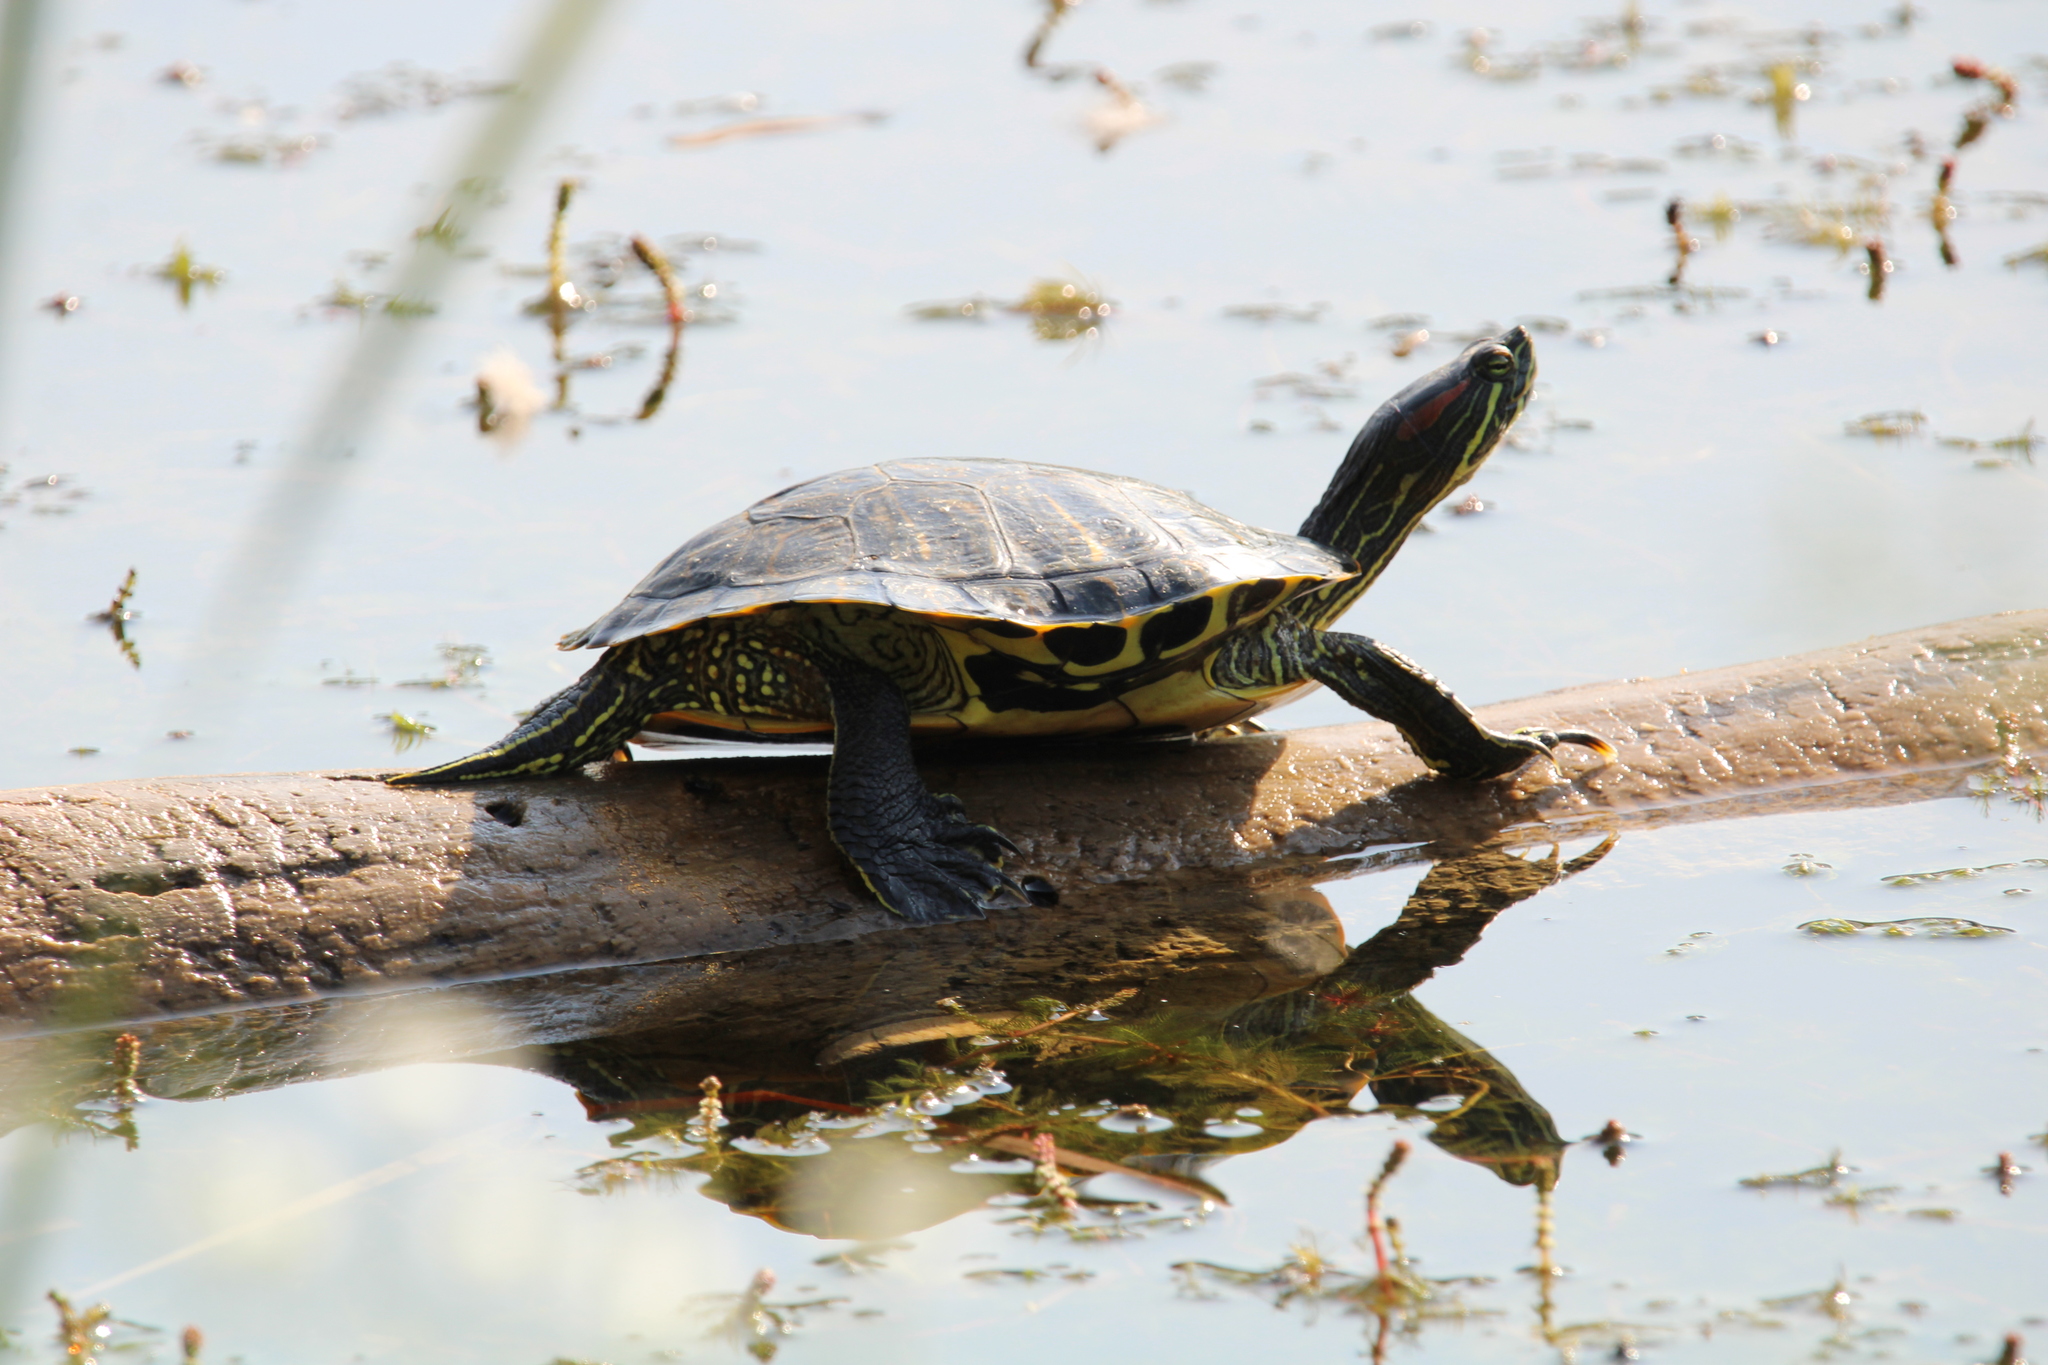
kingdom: Animalia
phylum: Chordata
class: Testudines
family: Emydidae
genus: Trachemys
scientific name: Trachemys scripta
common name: Slider
